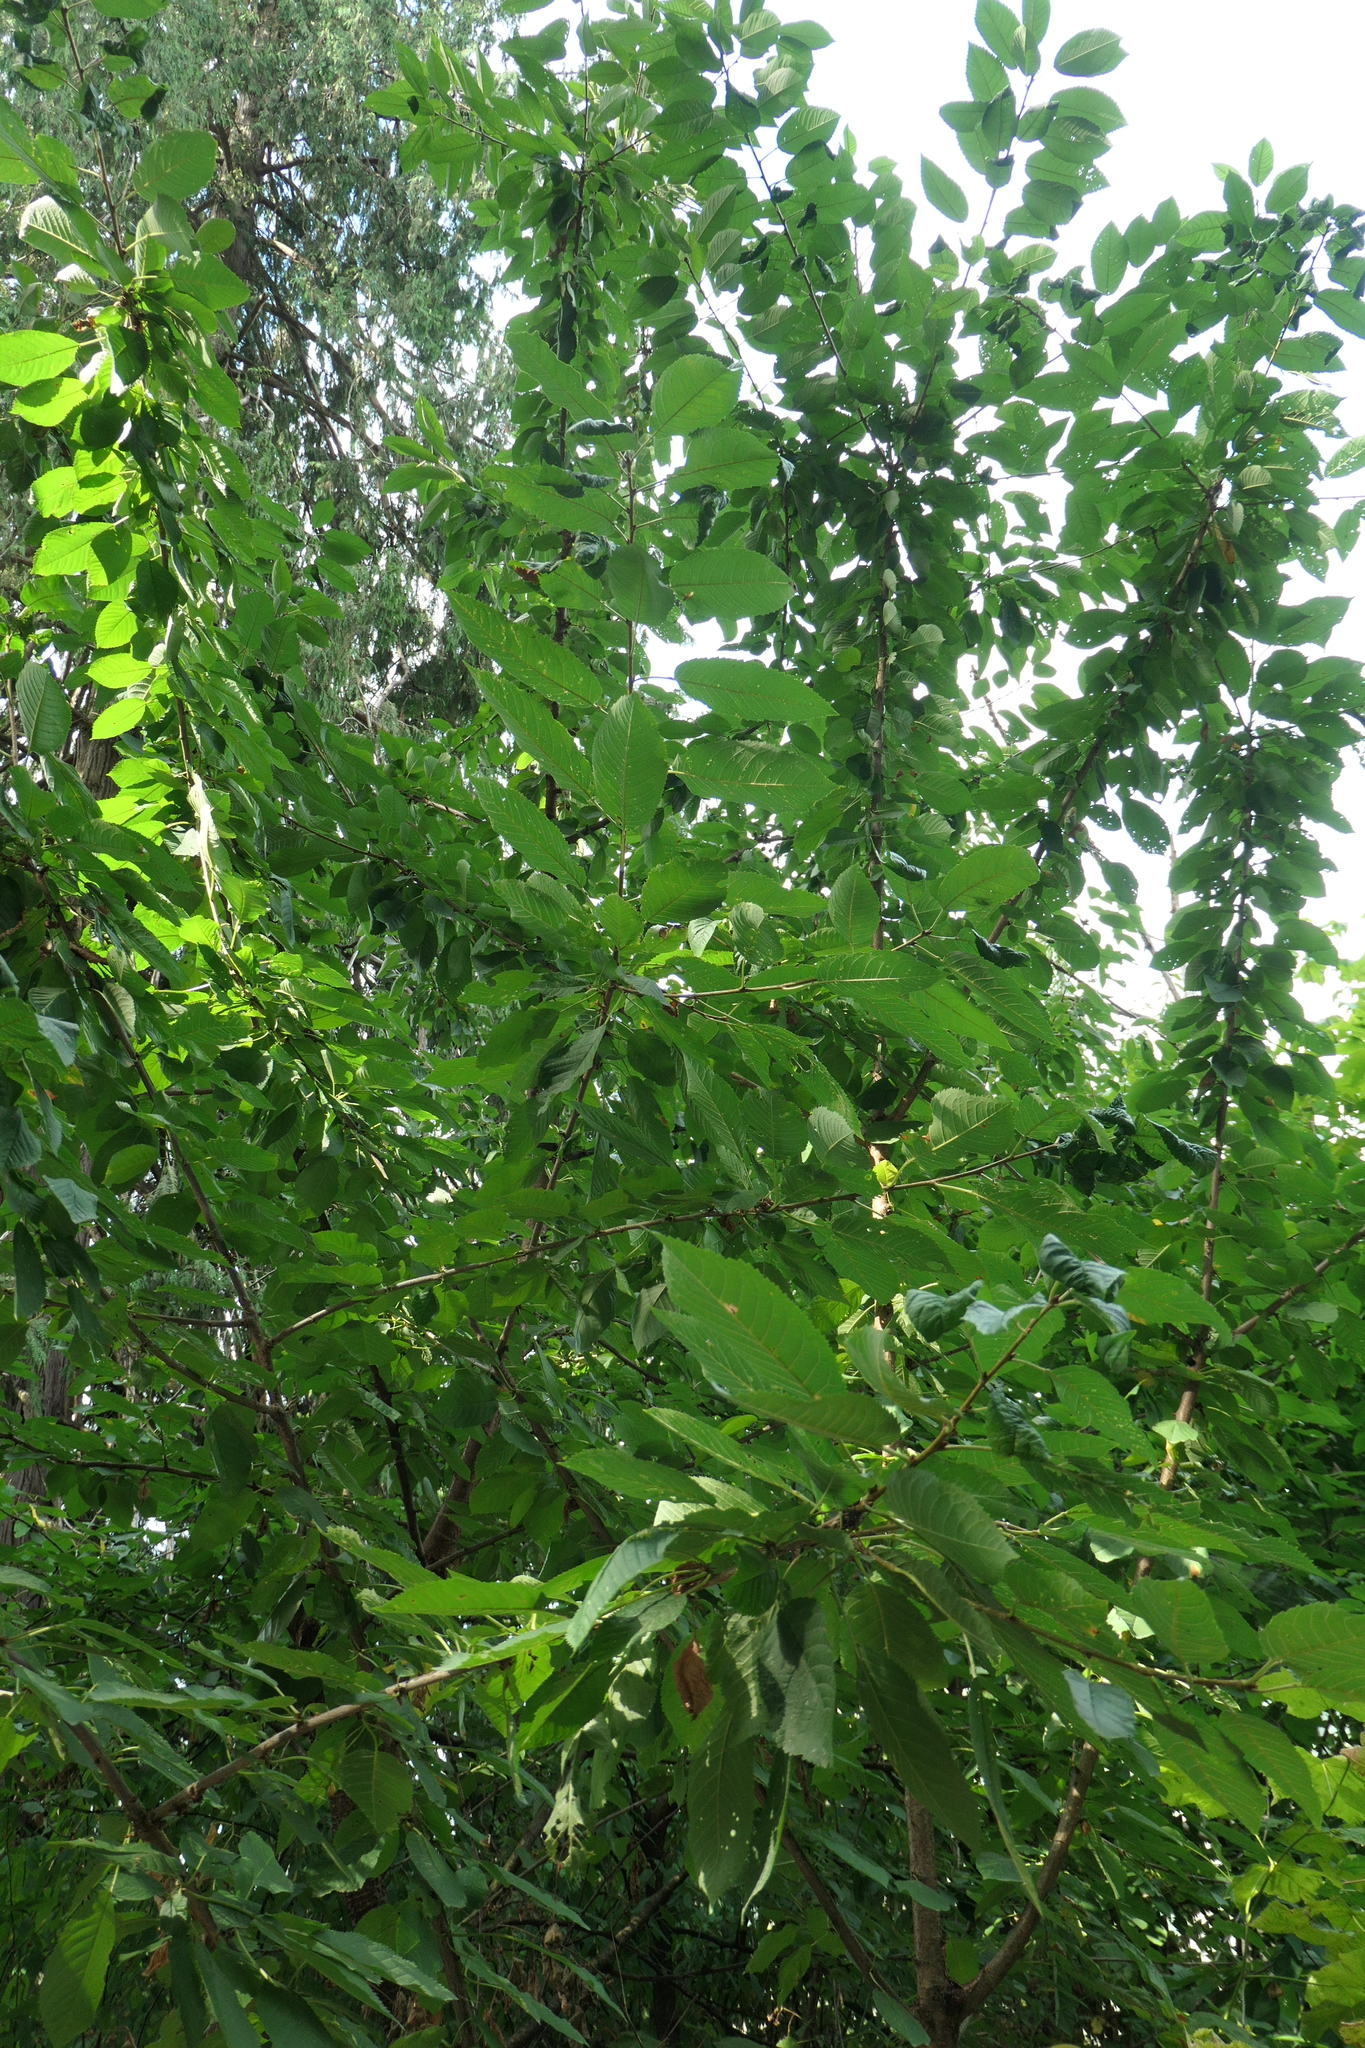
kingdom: Plantae
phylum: Tracheophyta
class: Magnoliopsida
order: Rosales
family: Rosaceae
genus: Prunus
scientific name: Prunus avium
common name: Sweet cherry
